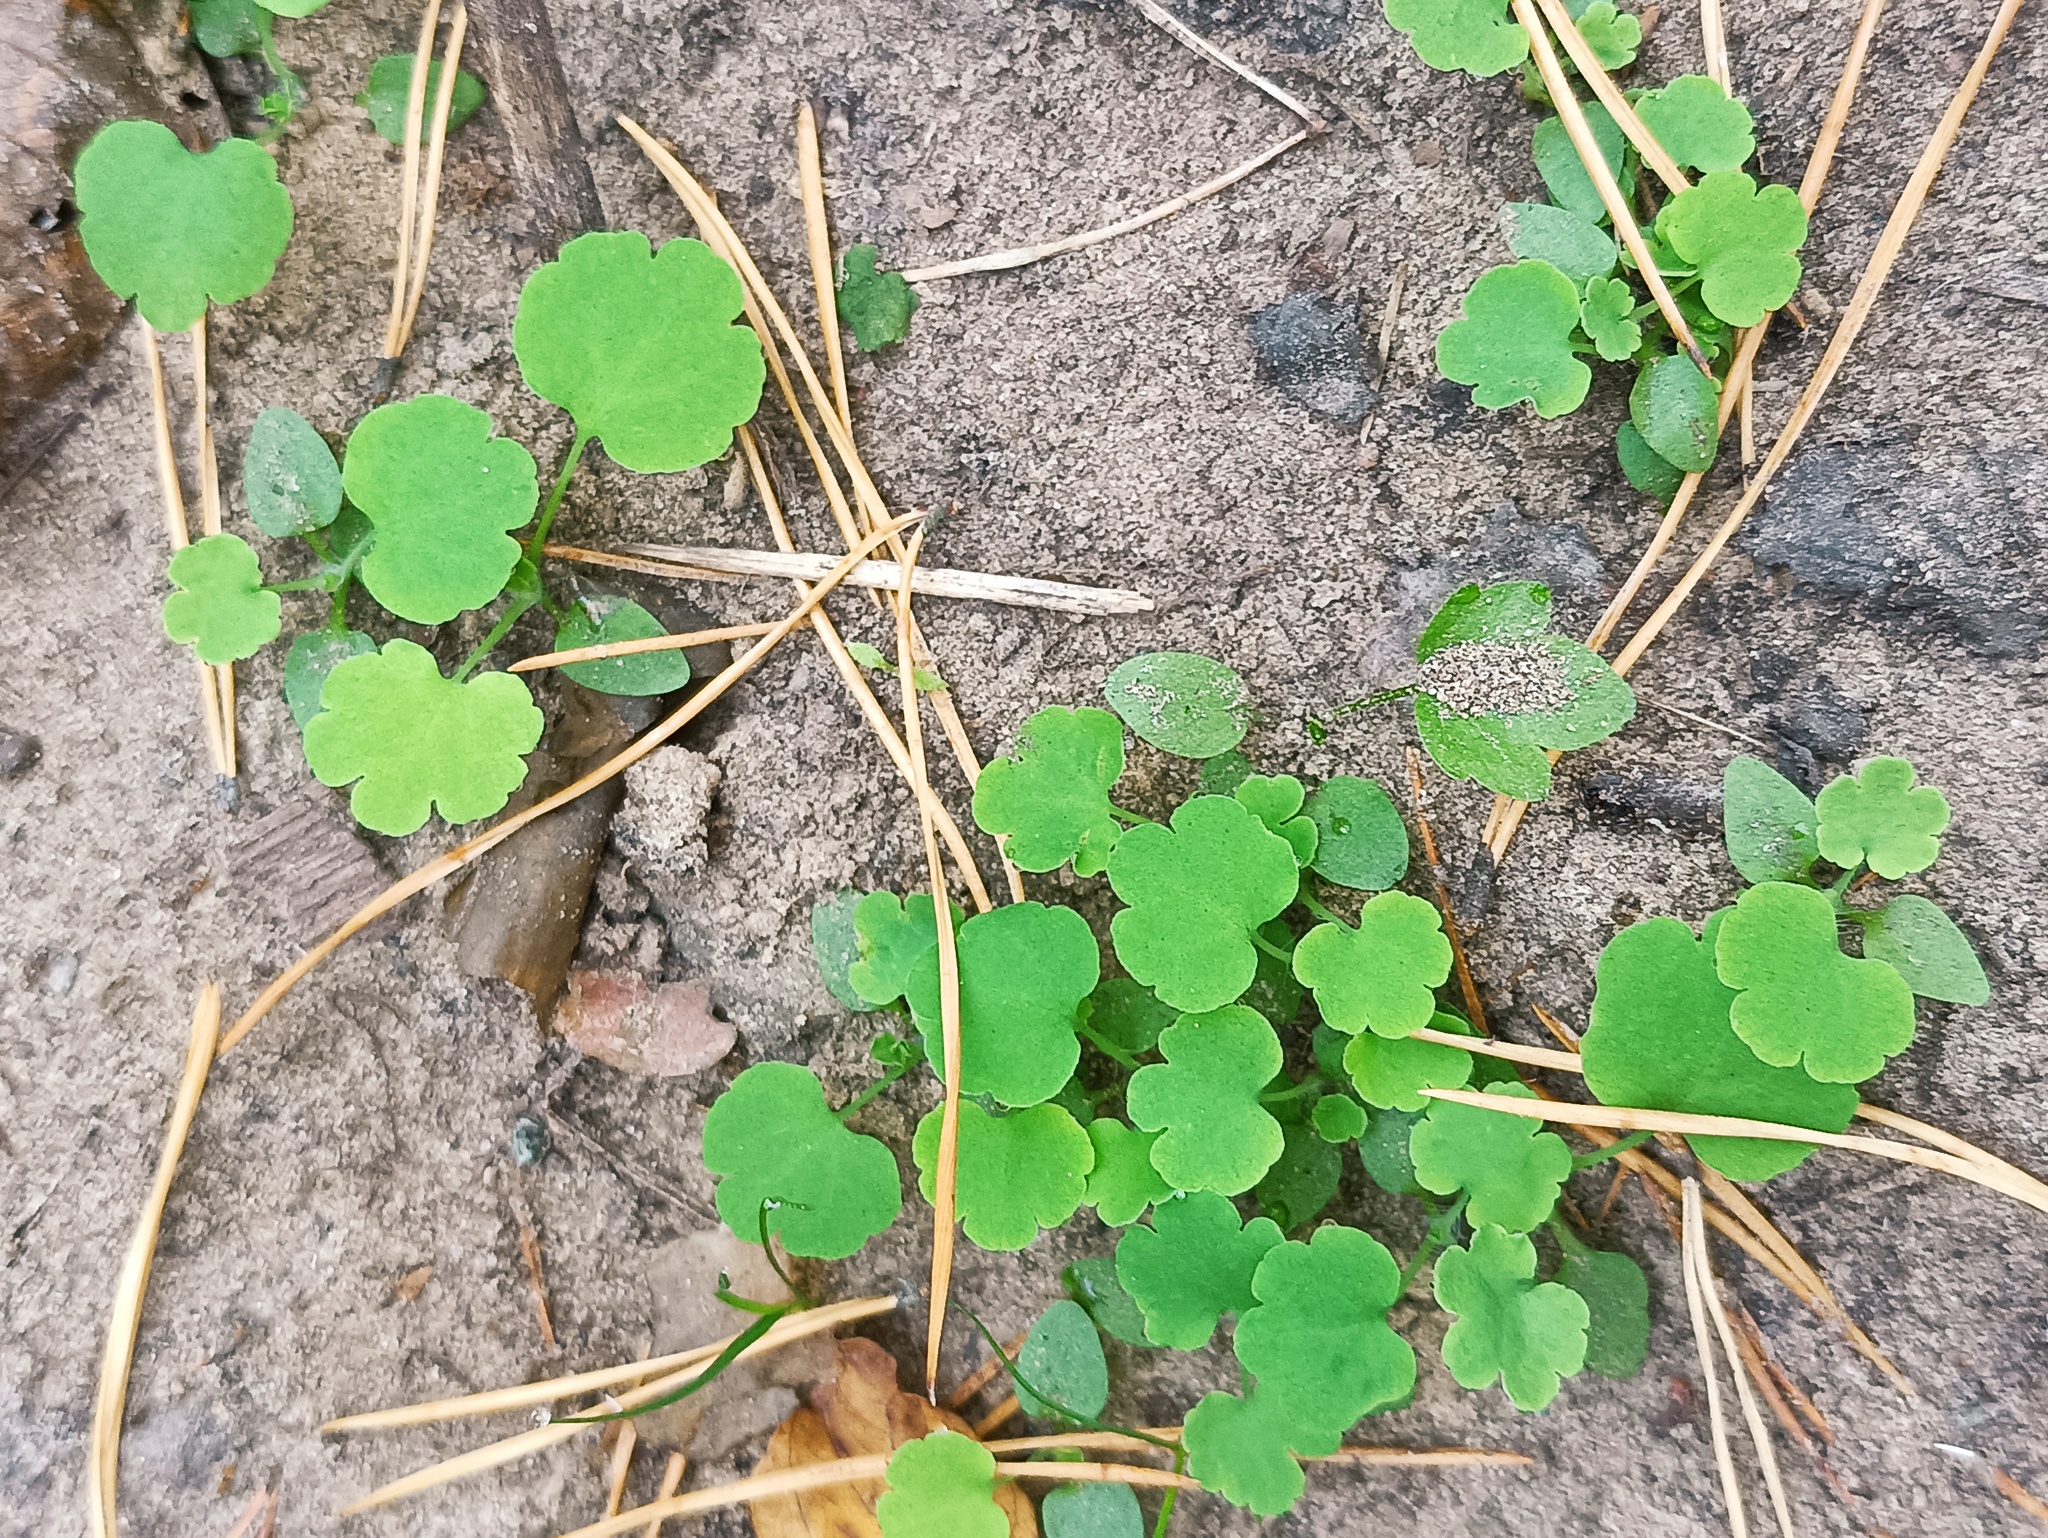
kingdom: Plantae
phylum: Tracheophyta
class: Magnoliopsida
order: Ranunculales
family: Papaveraceae
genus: Chelidonium
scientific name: Chelidonium majus
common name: Greater celandine
